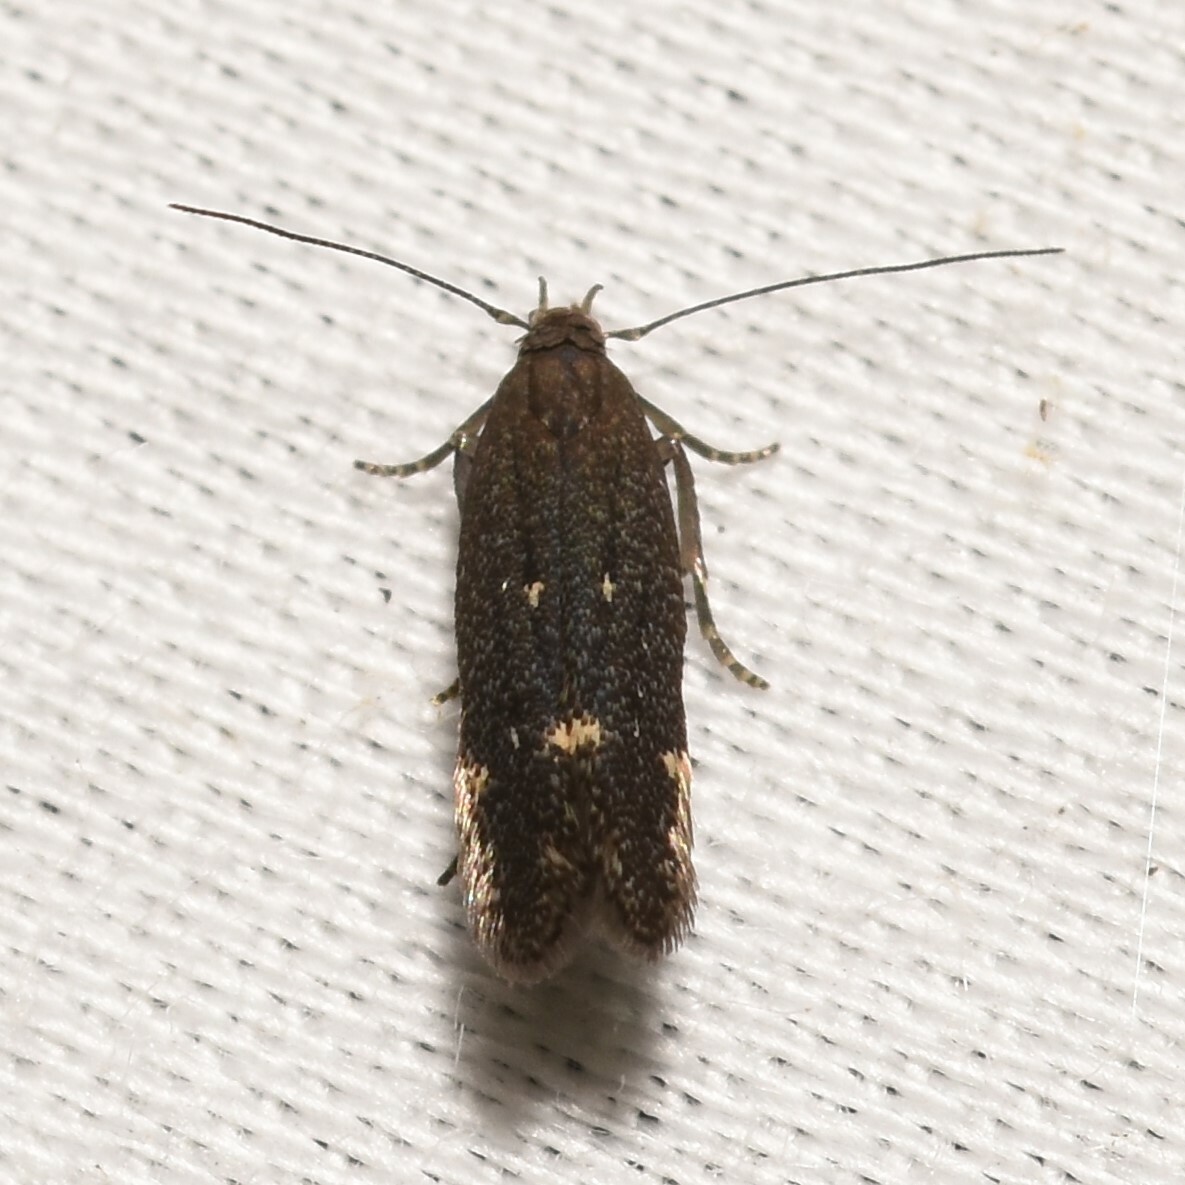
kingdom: Animalia
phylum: Arthropoda
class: Insecta
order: Lepidoptera
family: Gelechiidae
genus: Aproaerema
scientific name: Aproaerema anthyllidella
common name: Vetch sober
